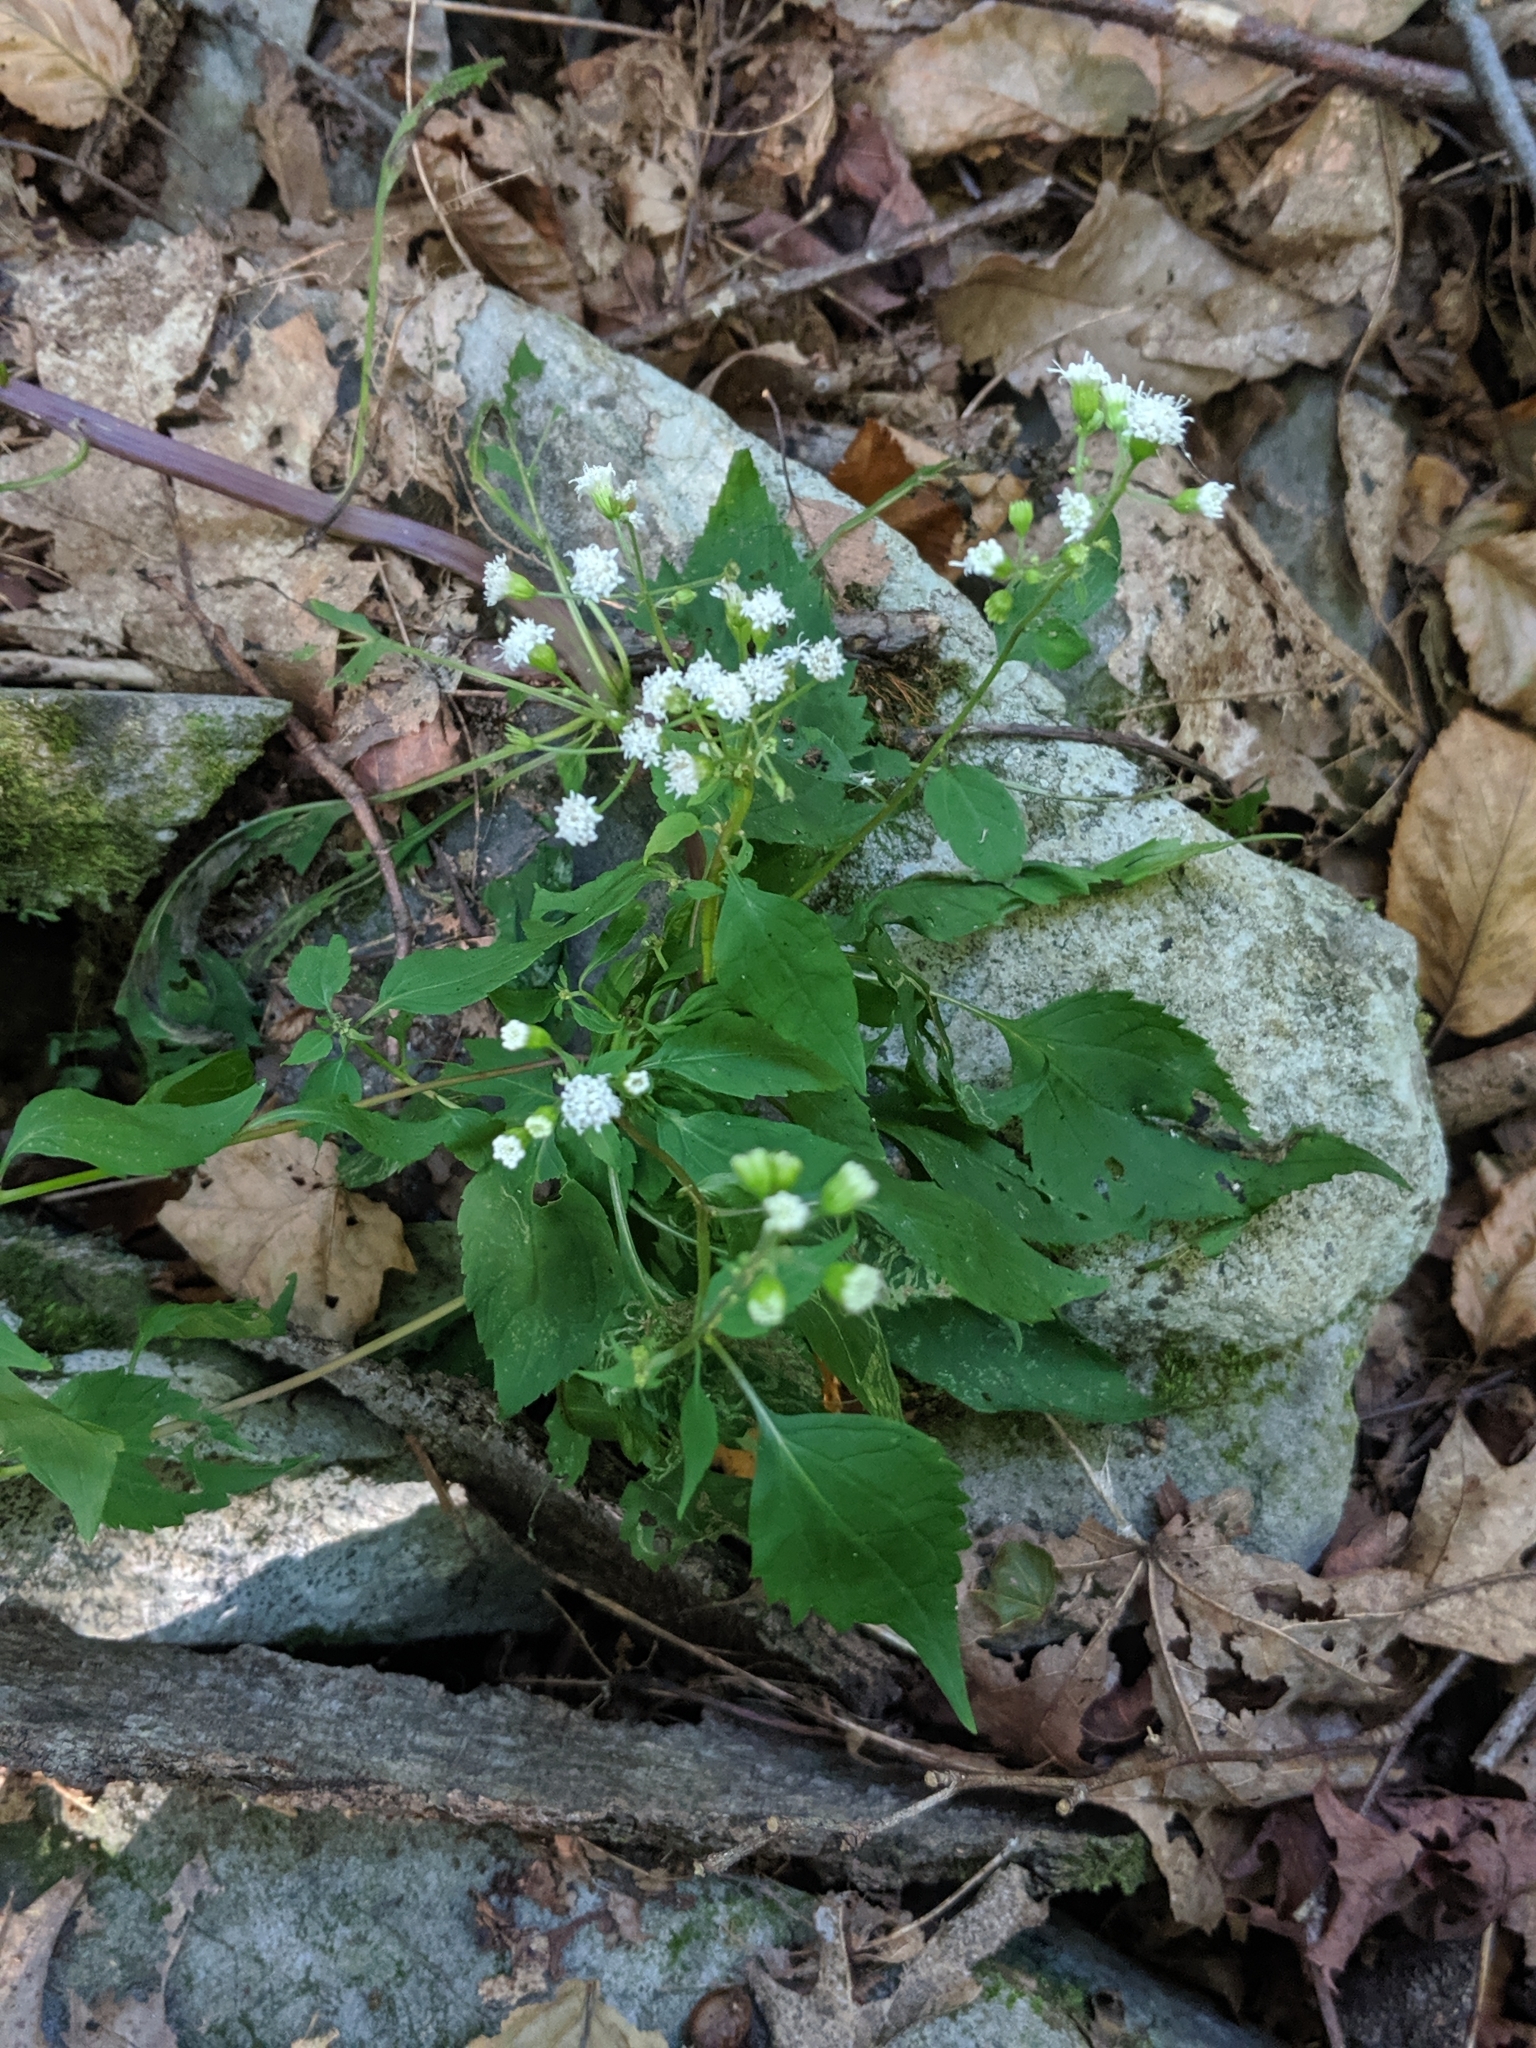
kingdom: Plantae
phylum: Tracheophyta
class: Magnoliopsida
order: Asterales
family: Asteraceae
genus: Ageratina
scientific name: Ageratina altissima
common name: White snakeroot
